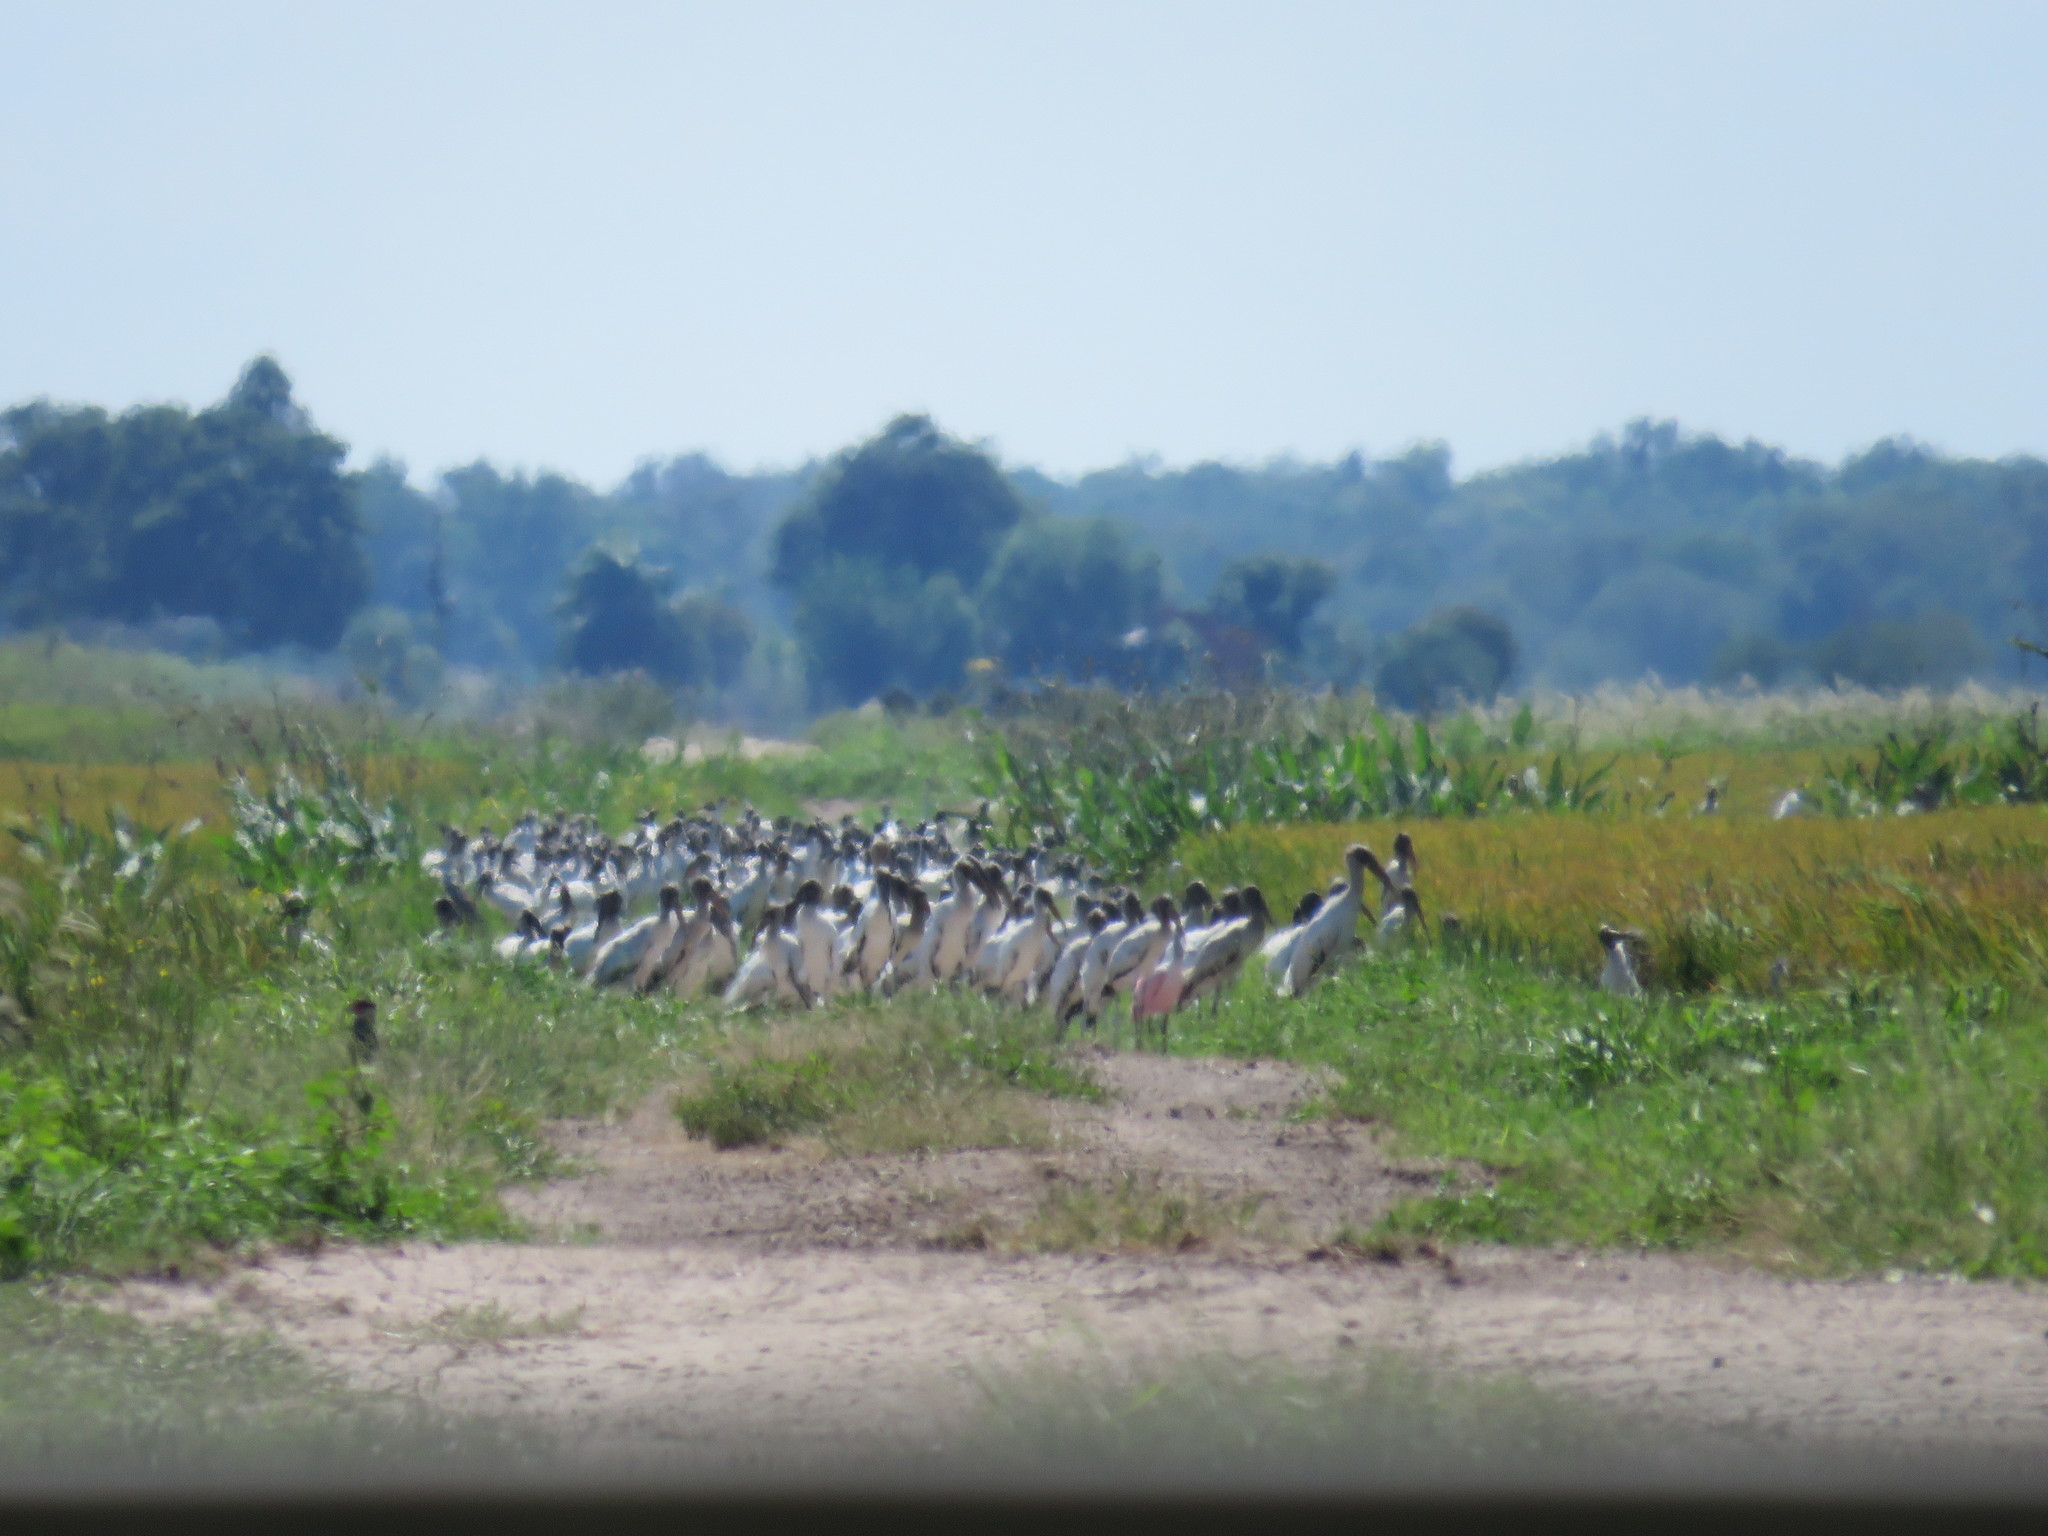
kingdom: Animalia
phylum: Chordata
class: Aves
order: Ciconiiformes
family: Ciconiidae
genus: Mycteria
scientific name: Mycteria americana
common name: Wood stork
